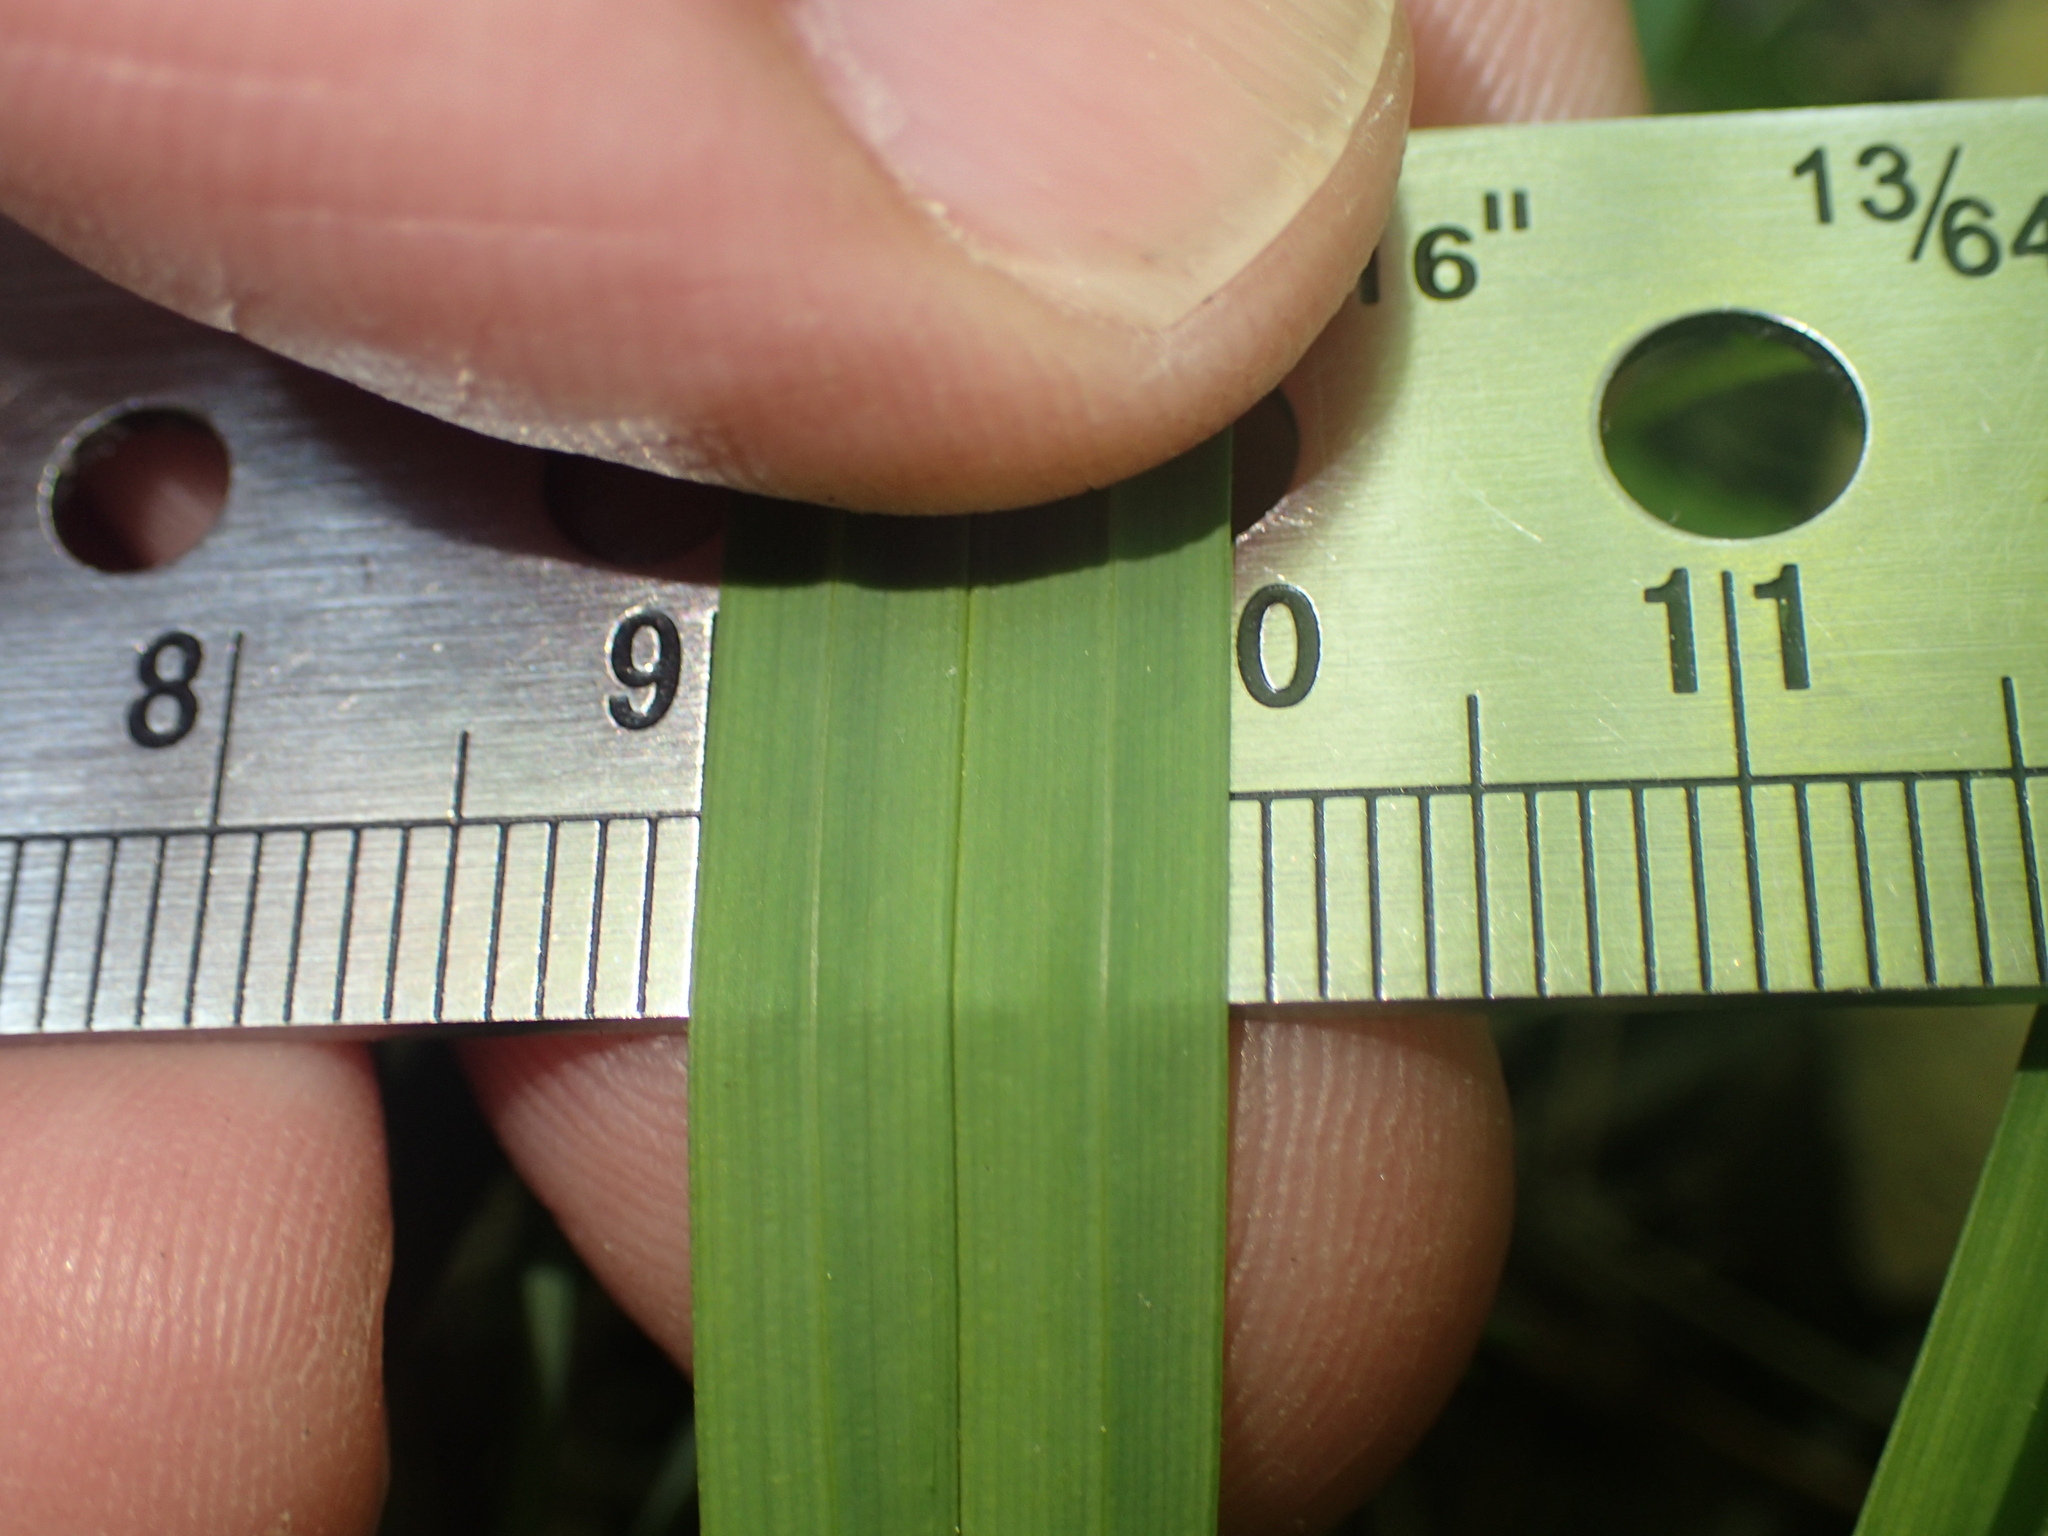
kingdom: Plantae
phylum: Tracheophyta
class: Liliopsida
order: Poales
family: Cyperaceae
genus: Carex
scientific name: Carex laxiculmis
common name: Spreading sedge
